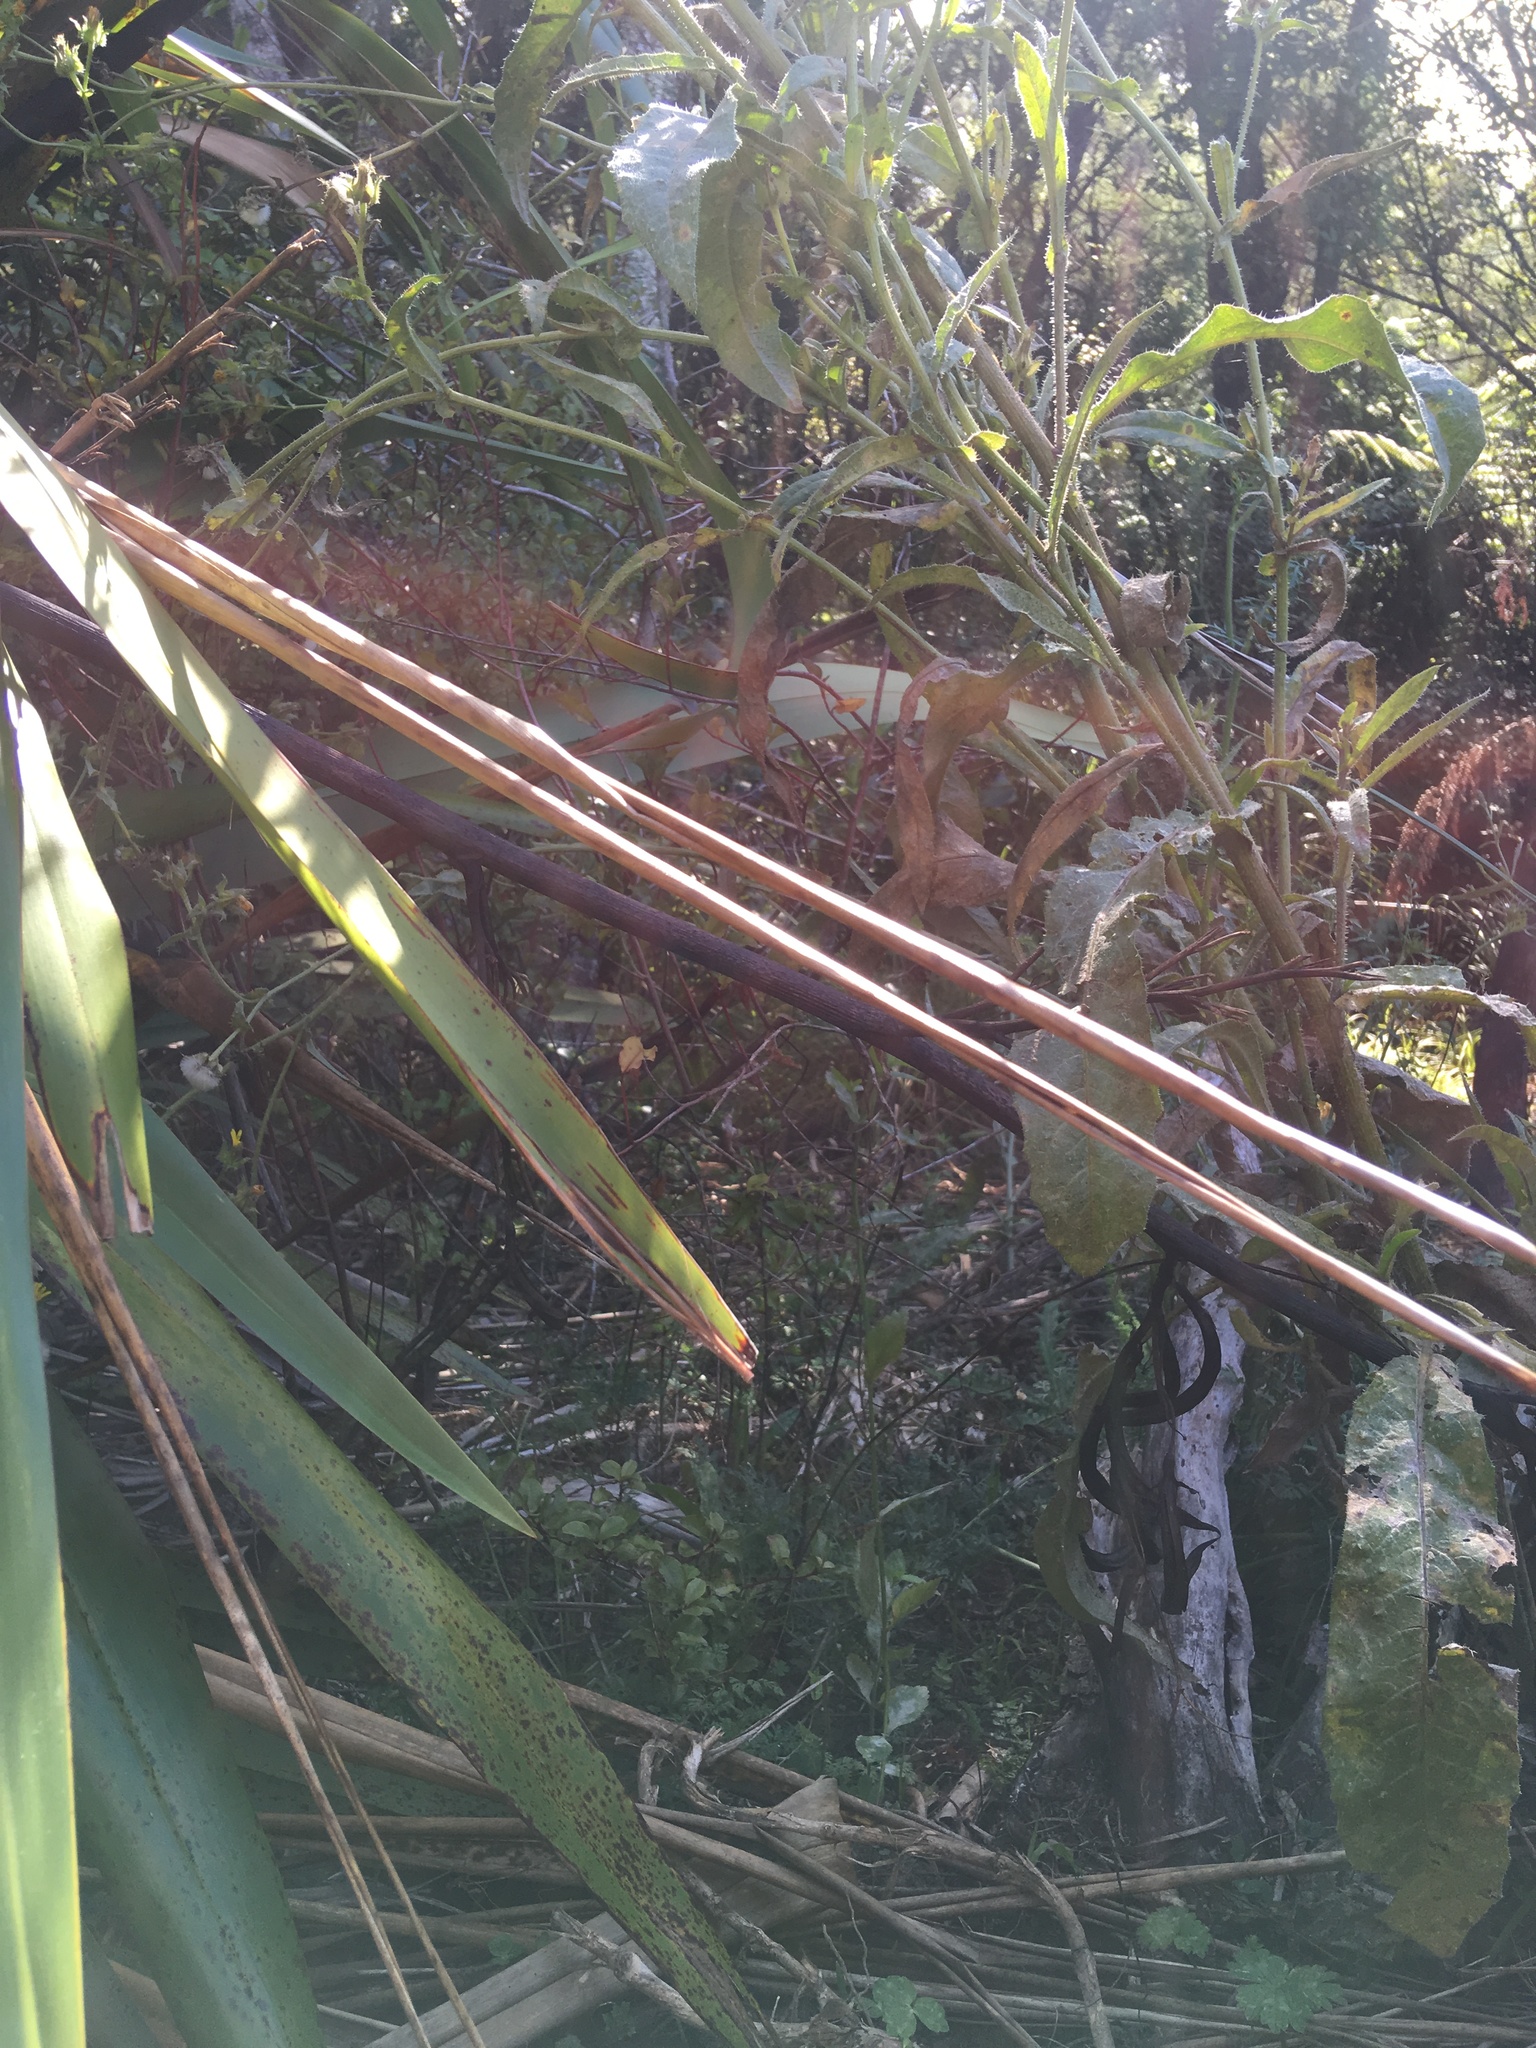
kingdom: Plantae
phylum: Tracheophyta
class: Magnoliopsida
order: Asterales
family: Asteraceae
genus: Helminthotheca
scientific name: Helminthotheca echioides
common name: Ox-tongue
